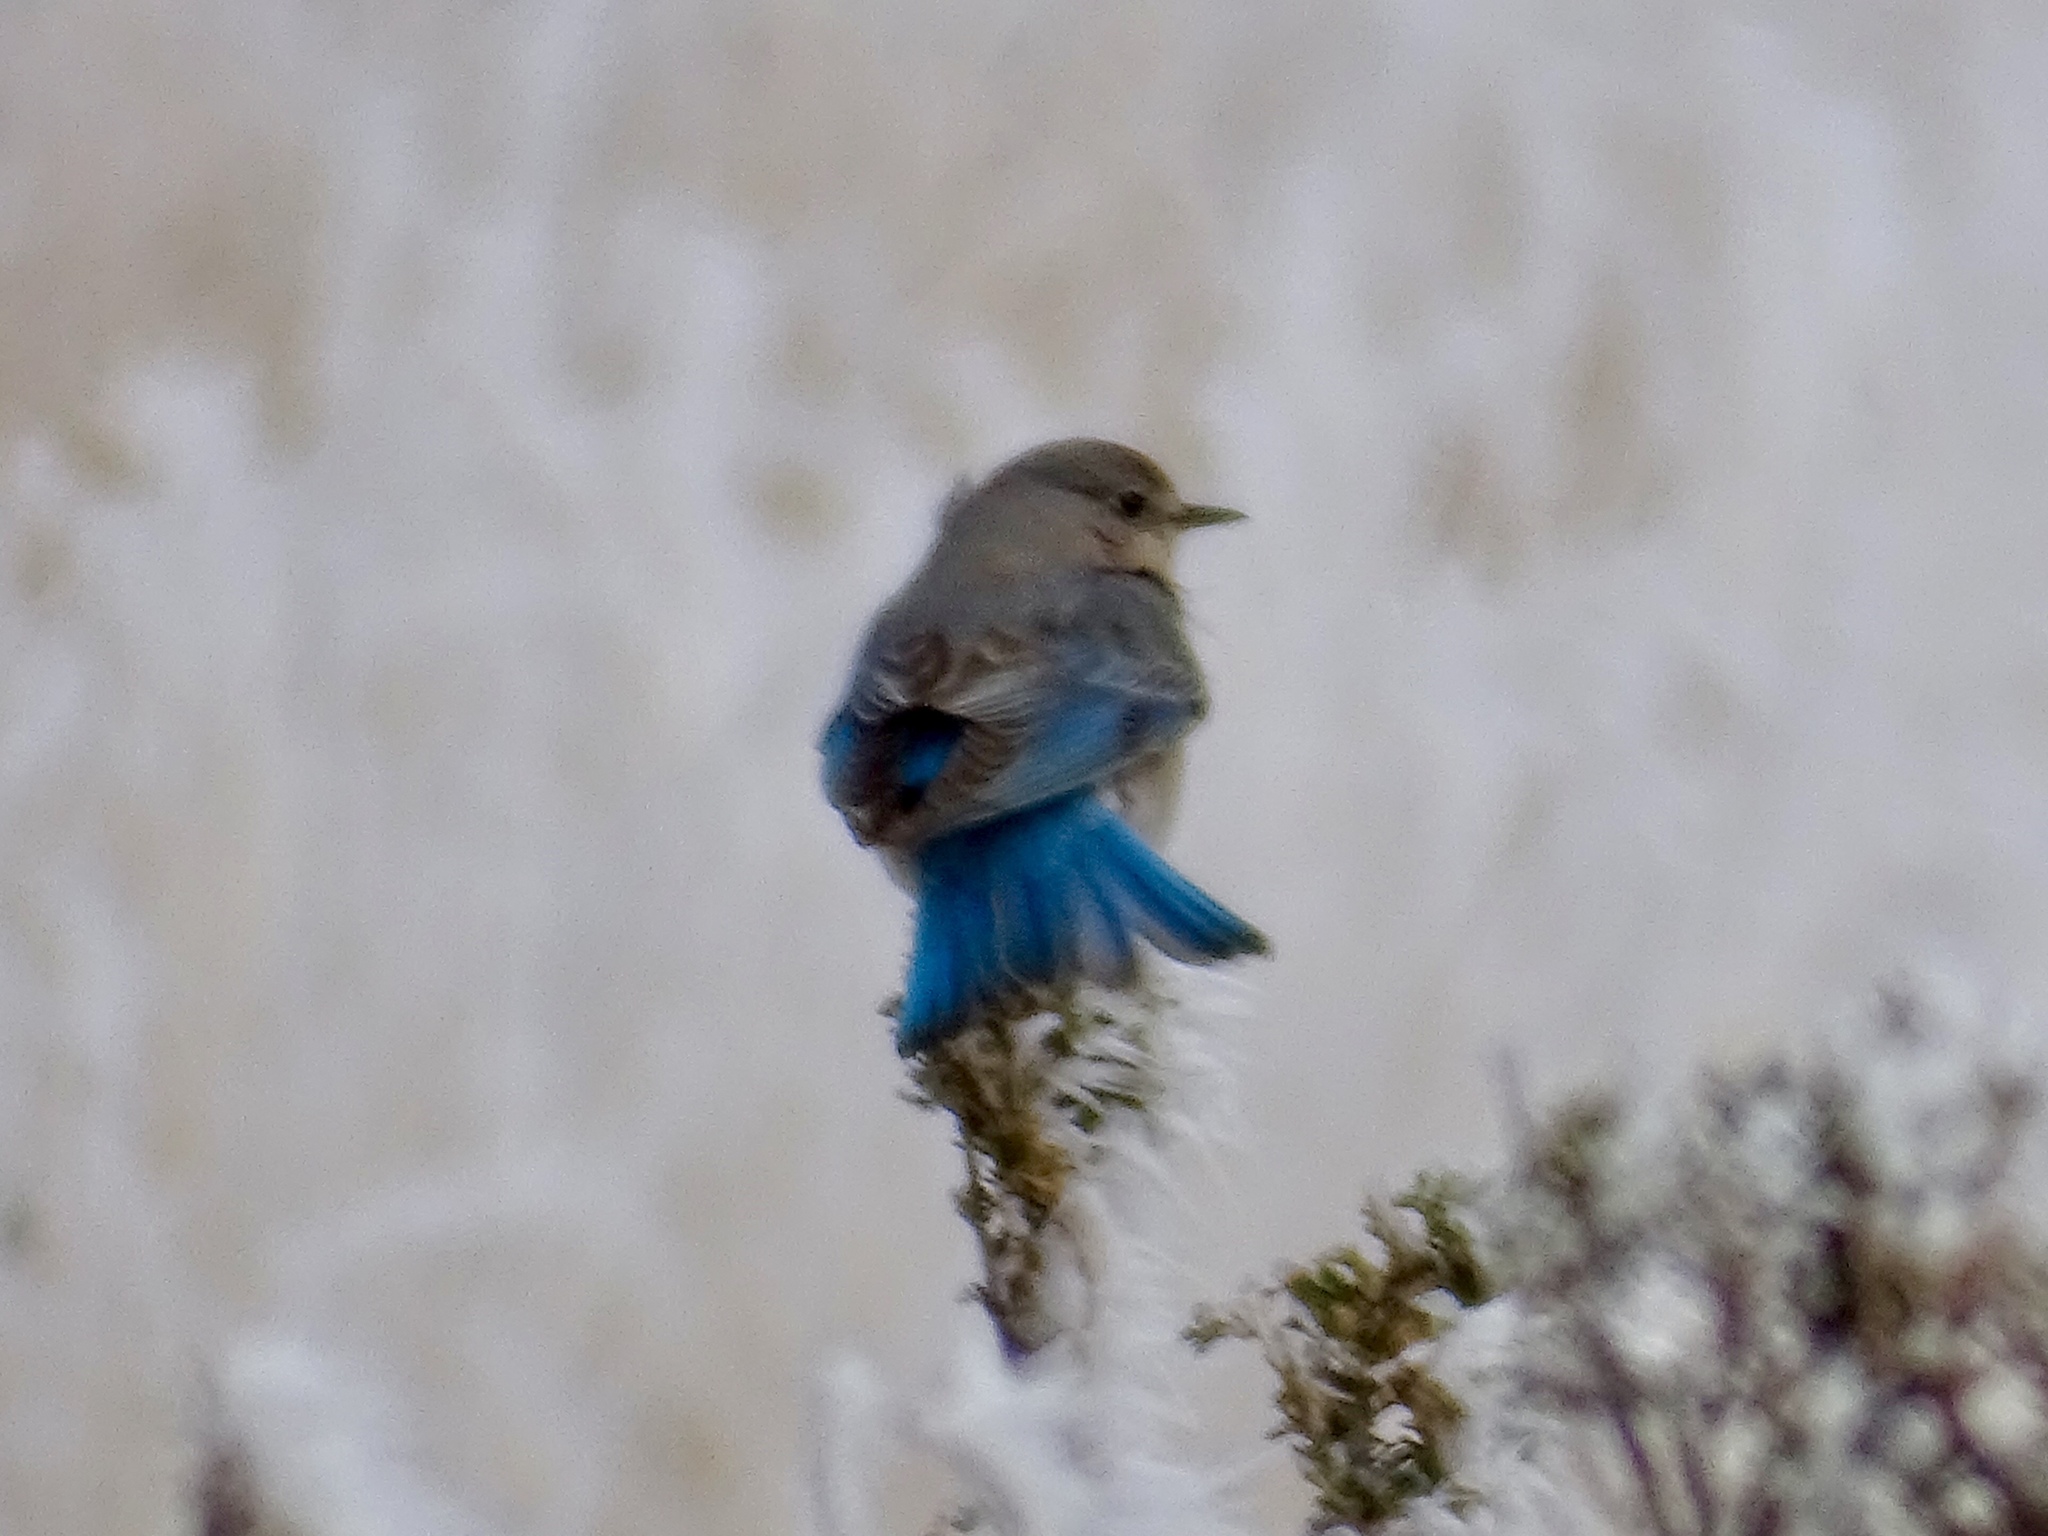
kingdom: Animalia
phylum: Chordata
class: Aves
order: Passeriformes
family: Turdidae
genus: Sialia
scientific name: Sialia currucoides
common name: Mountain bluebird
